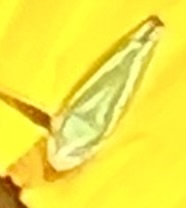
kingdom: Animalia
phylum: Arthropoda
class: Insecta
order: Hemiptera
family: Cicadellidae
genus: Graphocephala
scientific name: Graphocephala versuta
